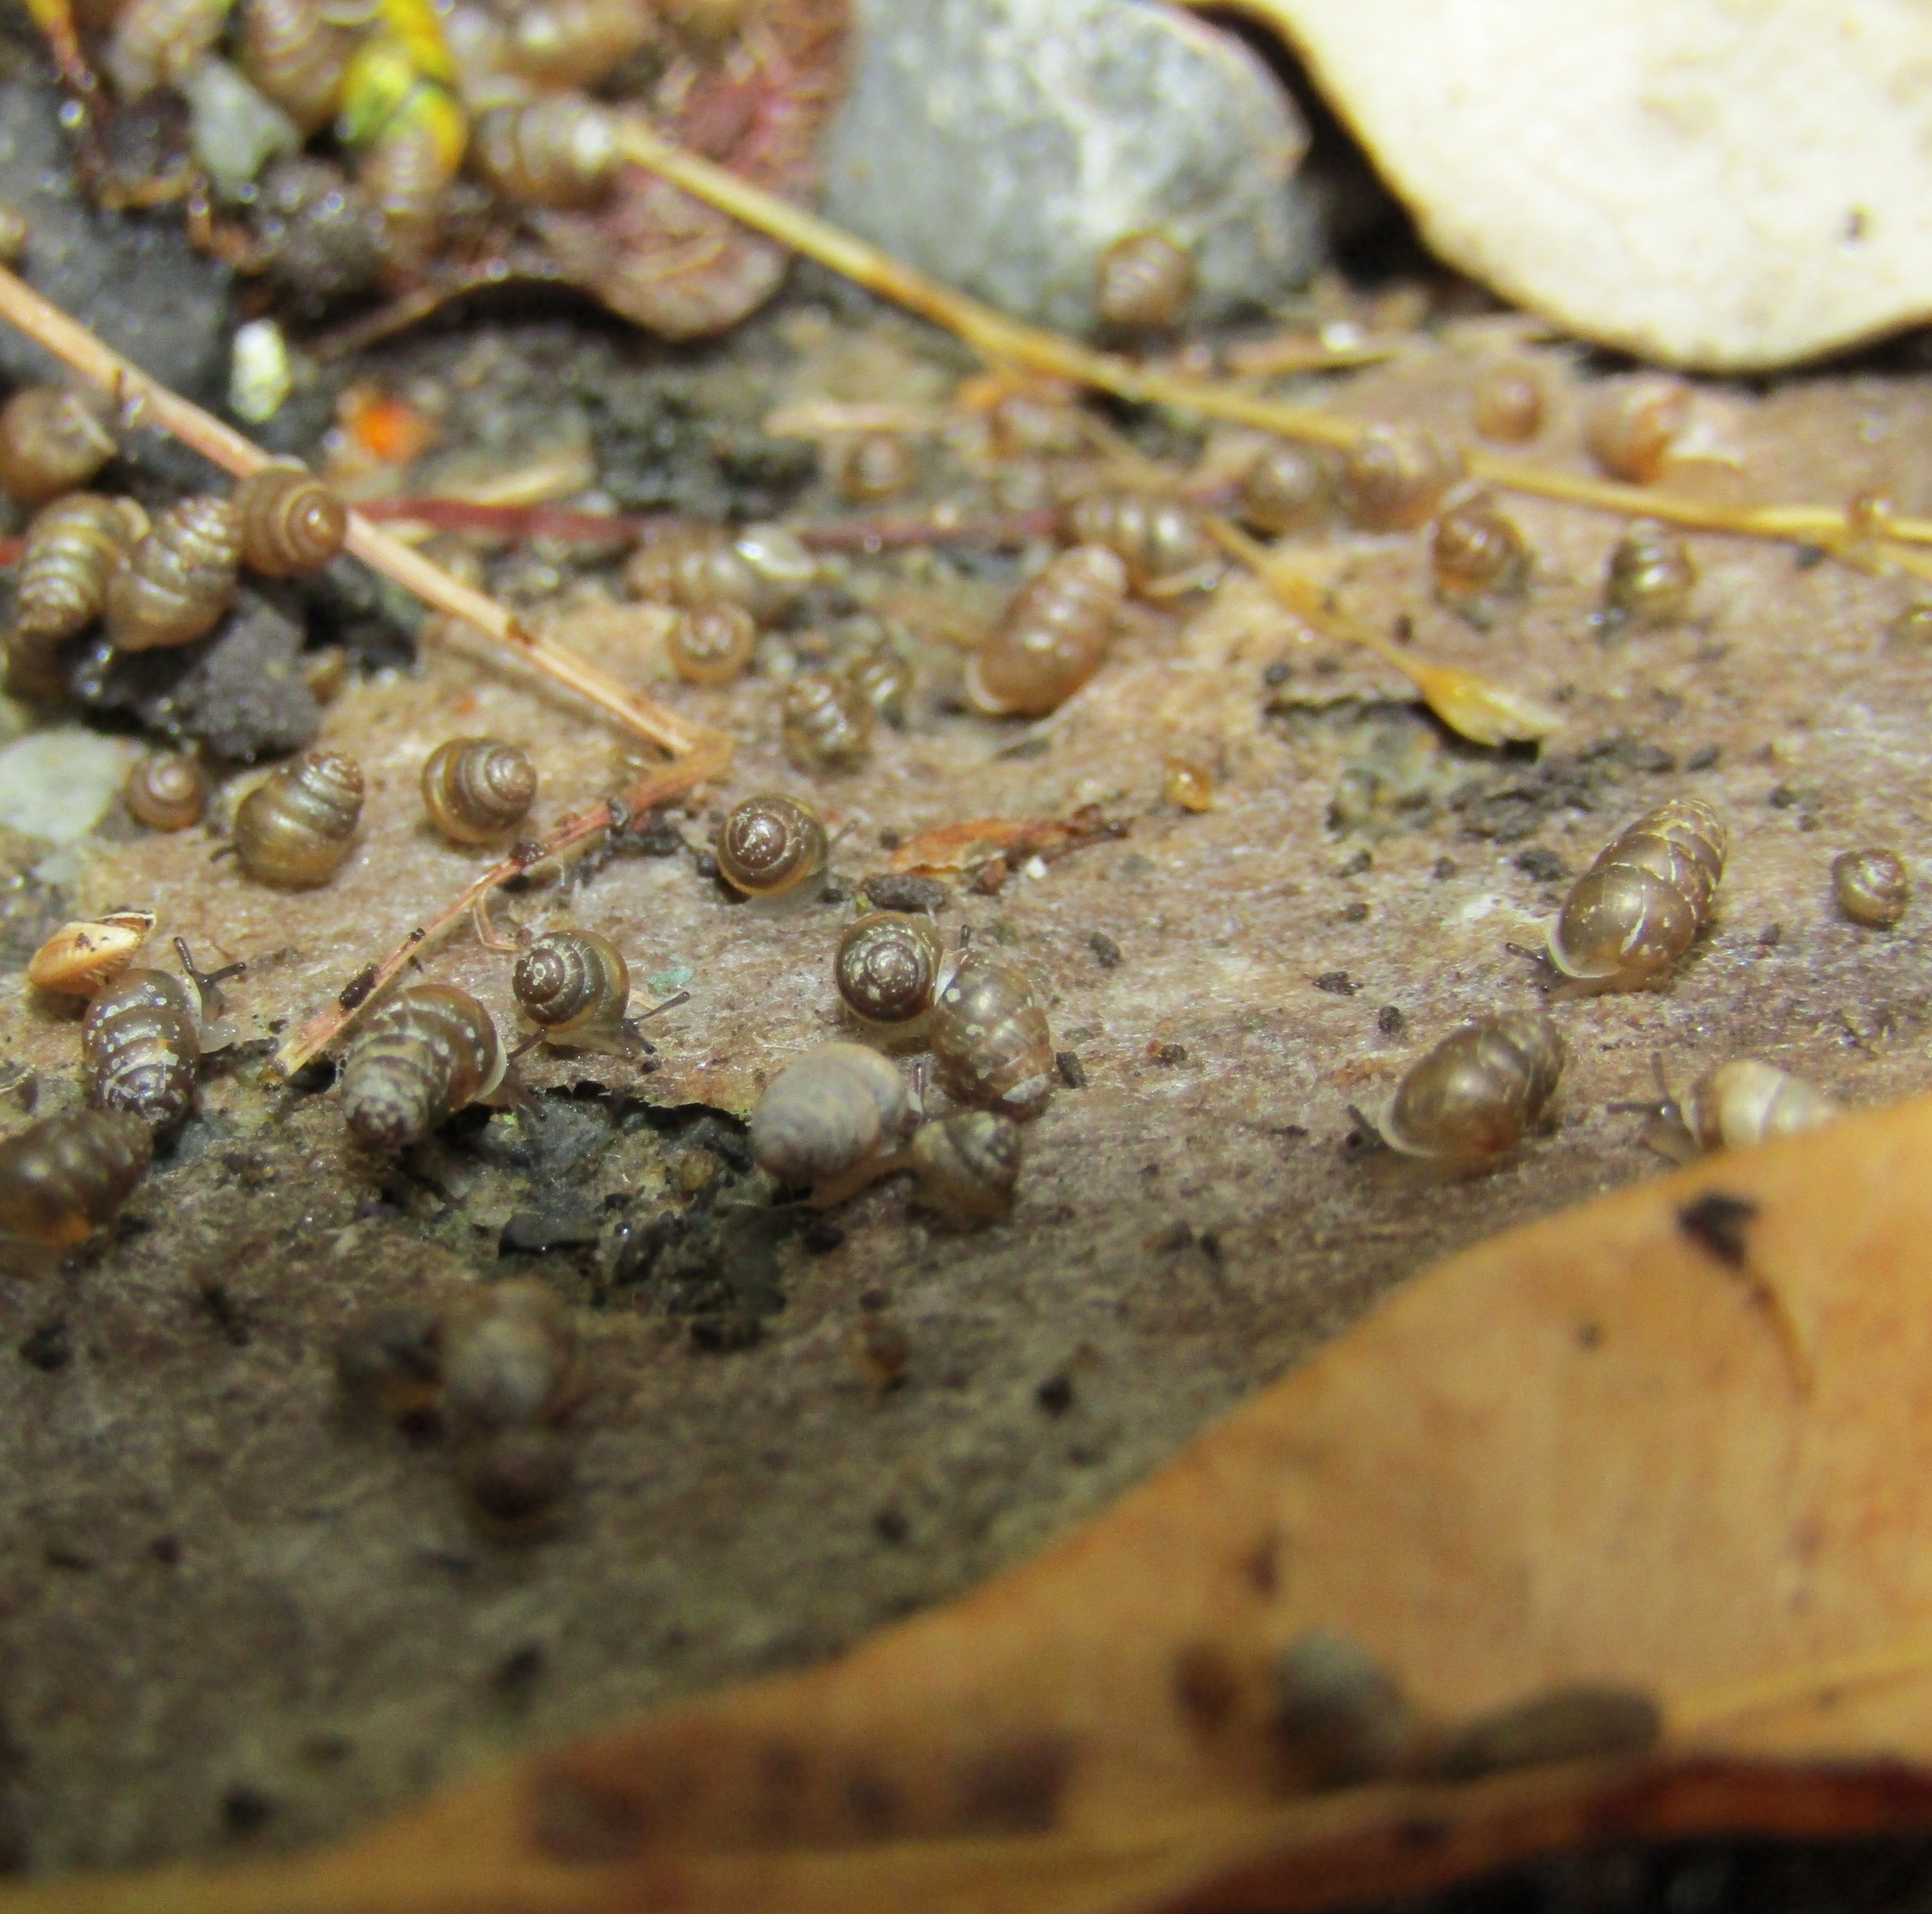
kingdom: Animalia
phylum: Mollusca
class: Gastropoda
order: Stylommatophora
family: Lauriidae
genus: Lauria
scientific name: Lauria cylindracea
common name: Common chrysalis snail
